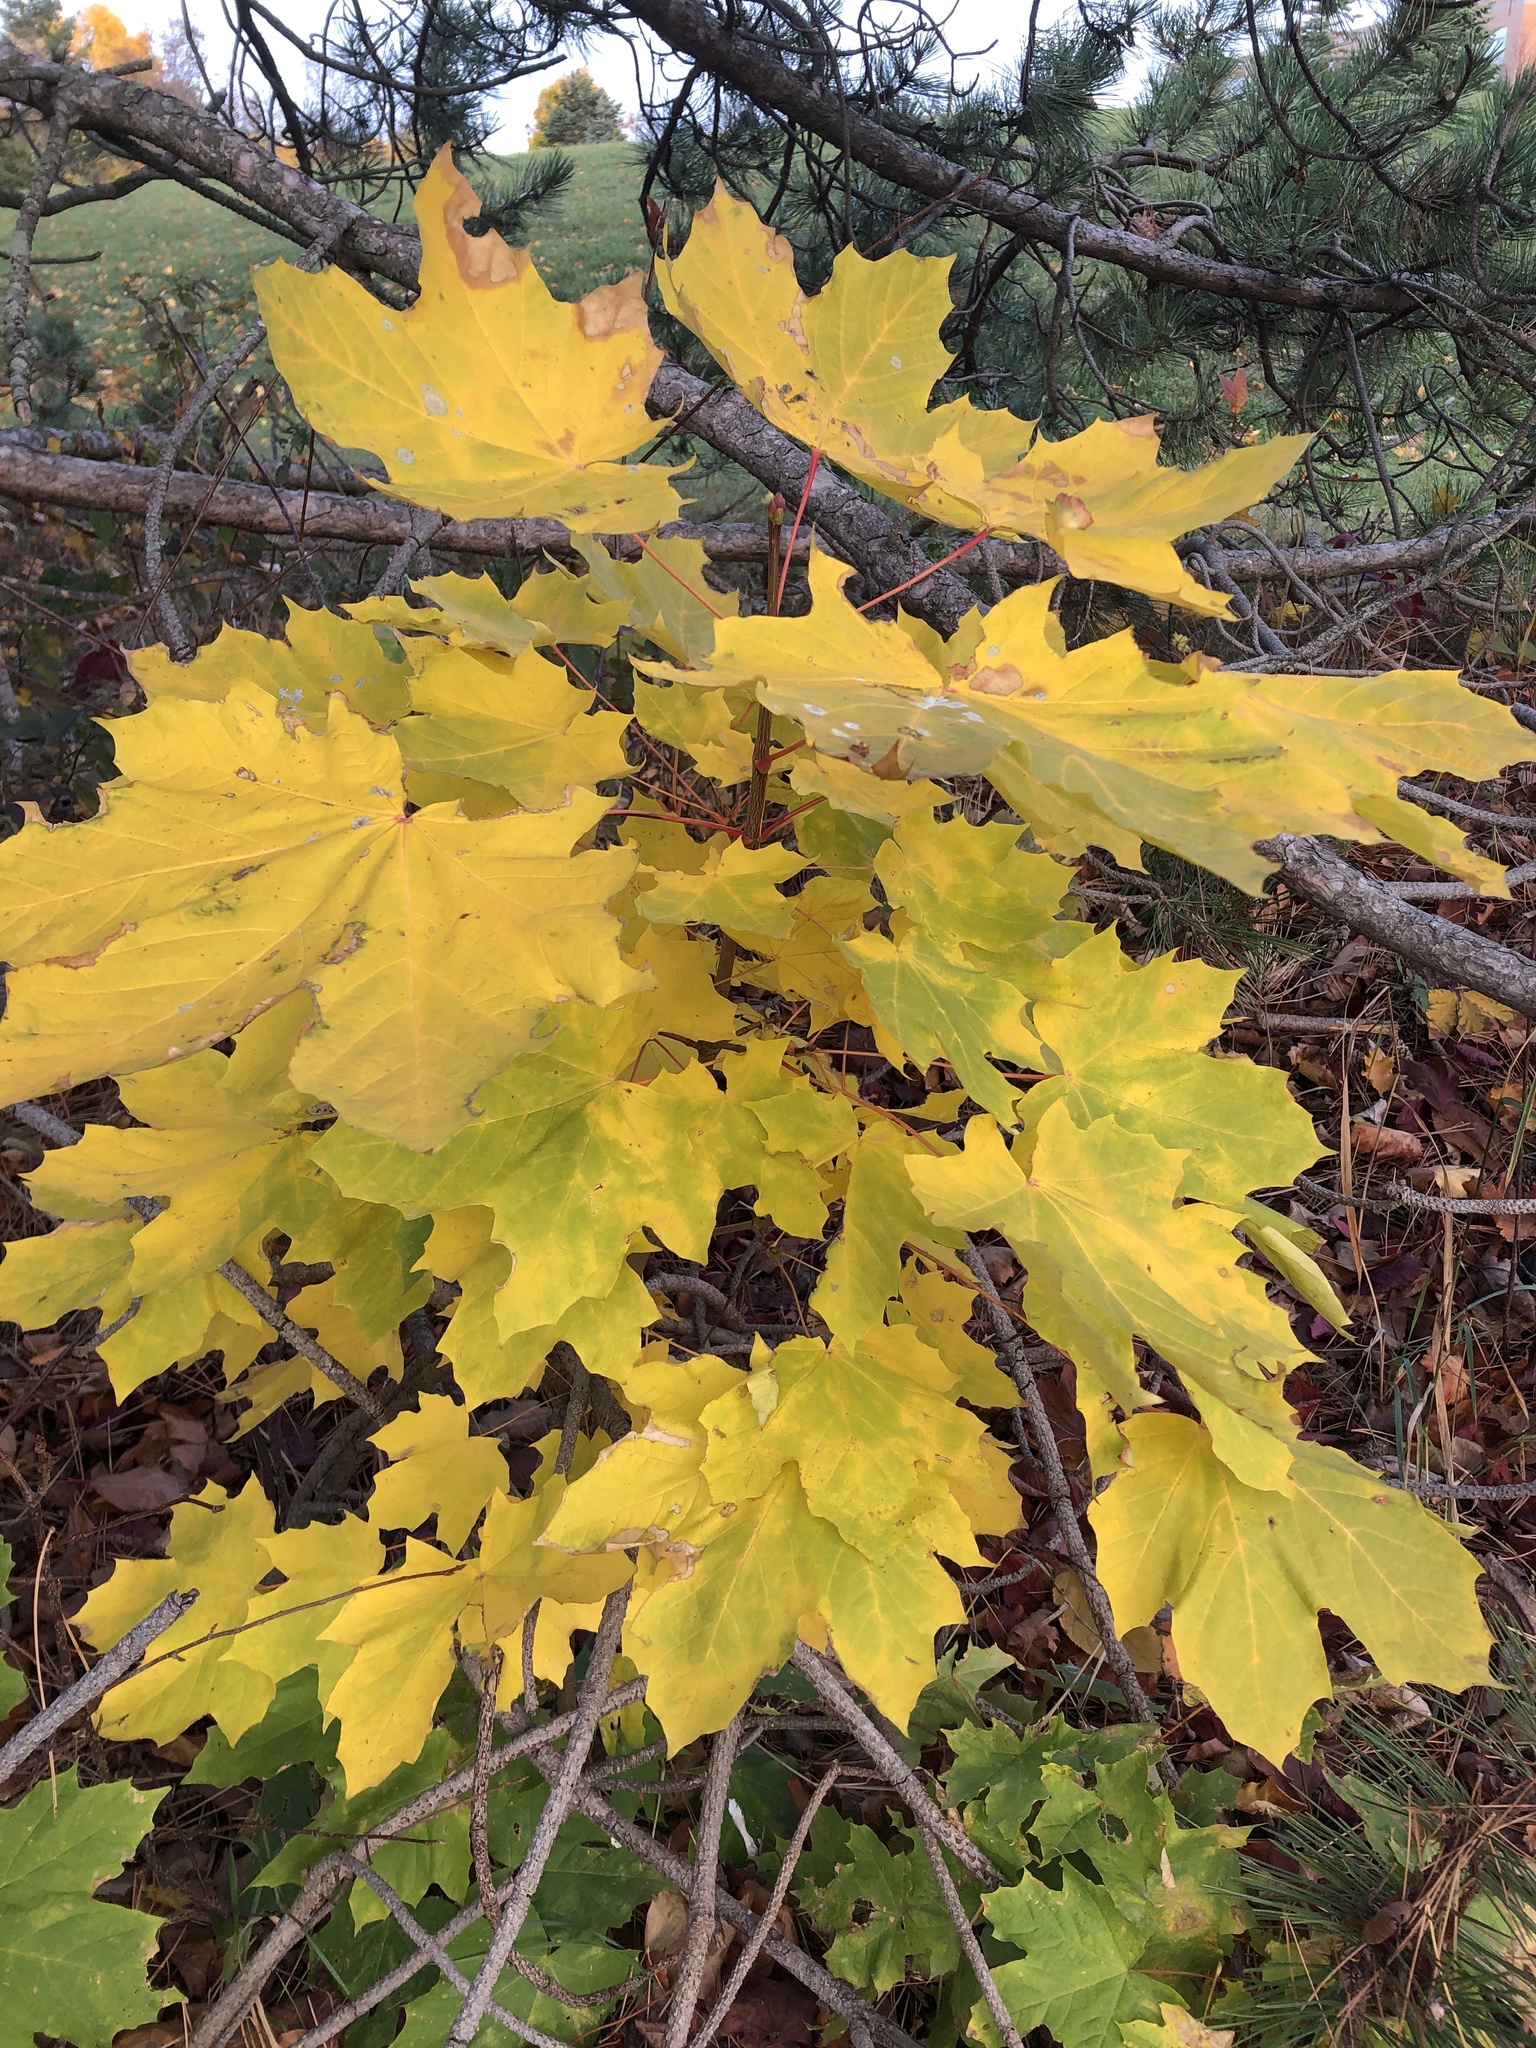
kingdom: Plantae
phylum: Tracheophyta
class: Magnoliopsida
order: Sapindales
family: Sapindaceae
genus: Acer
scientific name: Acer platanoides
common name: Norway maple
